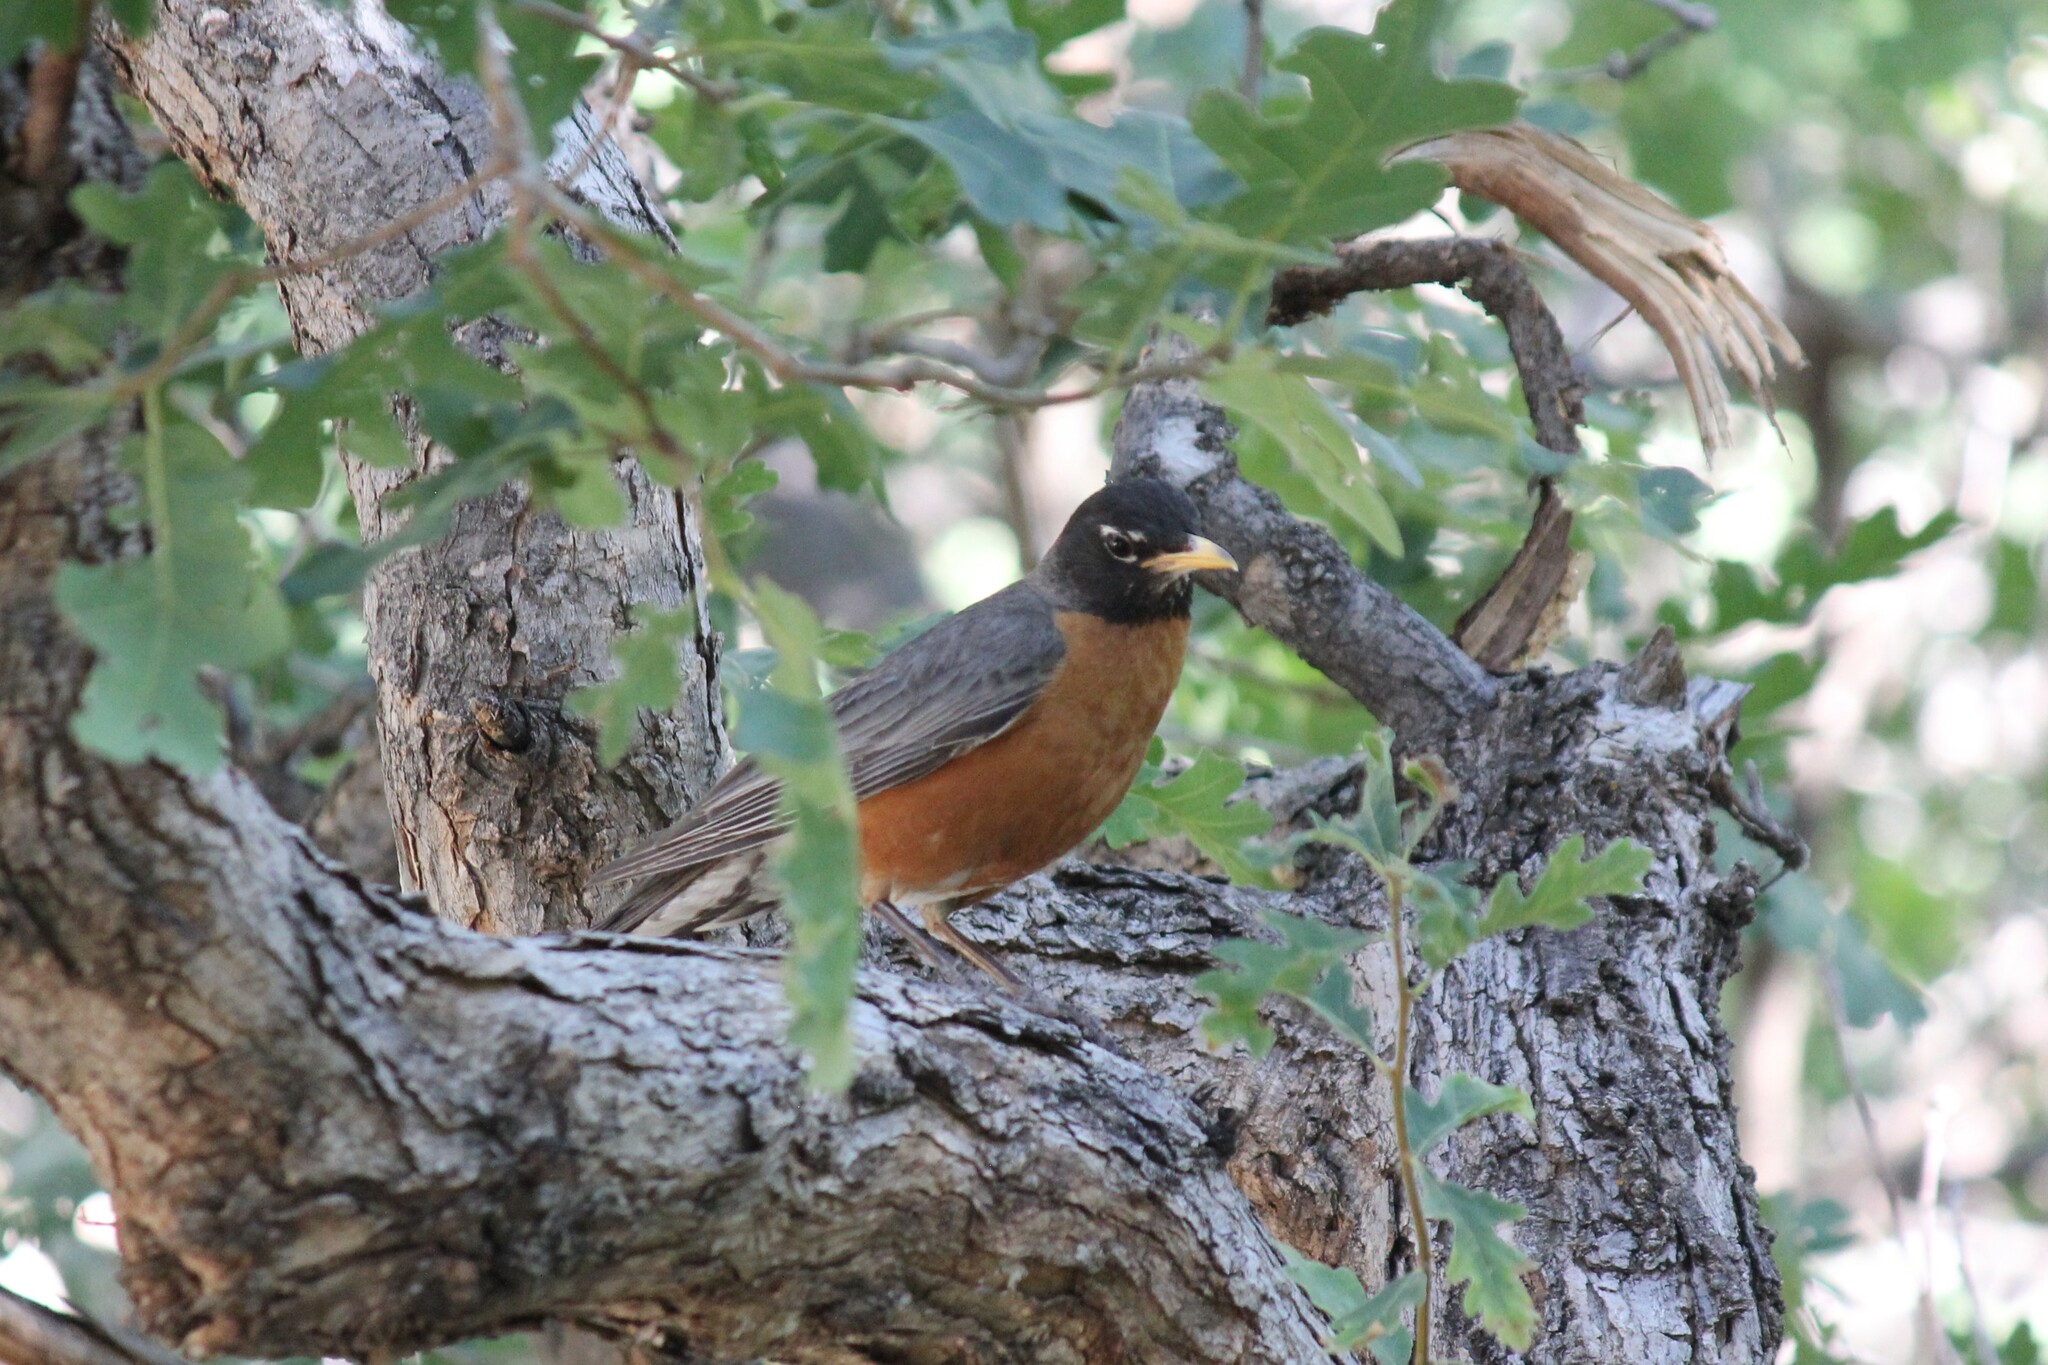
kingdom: Animalia
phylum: Chordata
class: Aves
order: Passeriformes
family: Turdidae
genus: Turdus
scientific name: Turdus migratorius
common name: American robin
